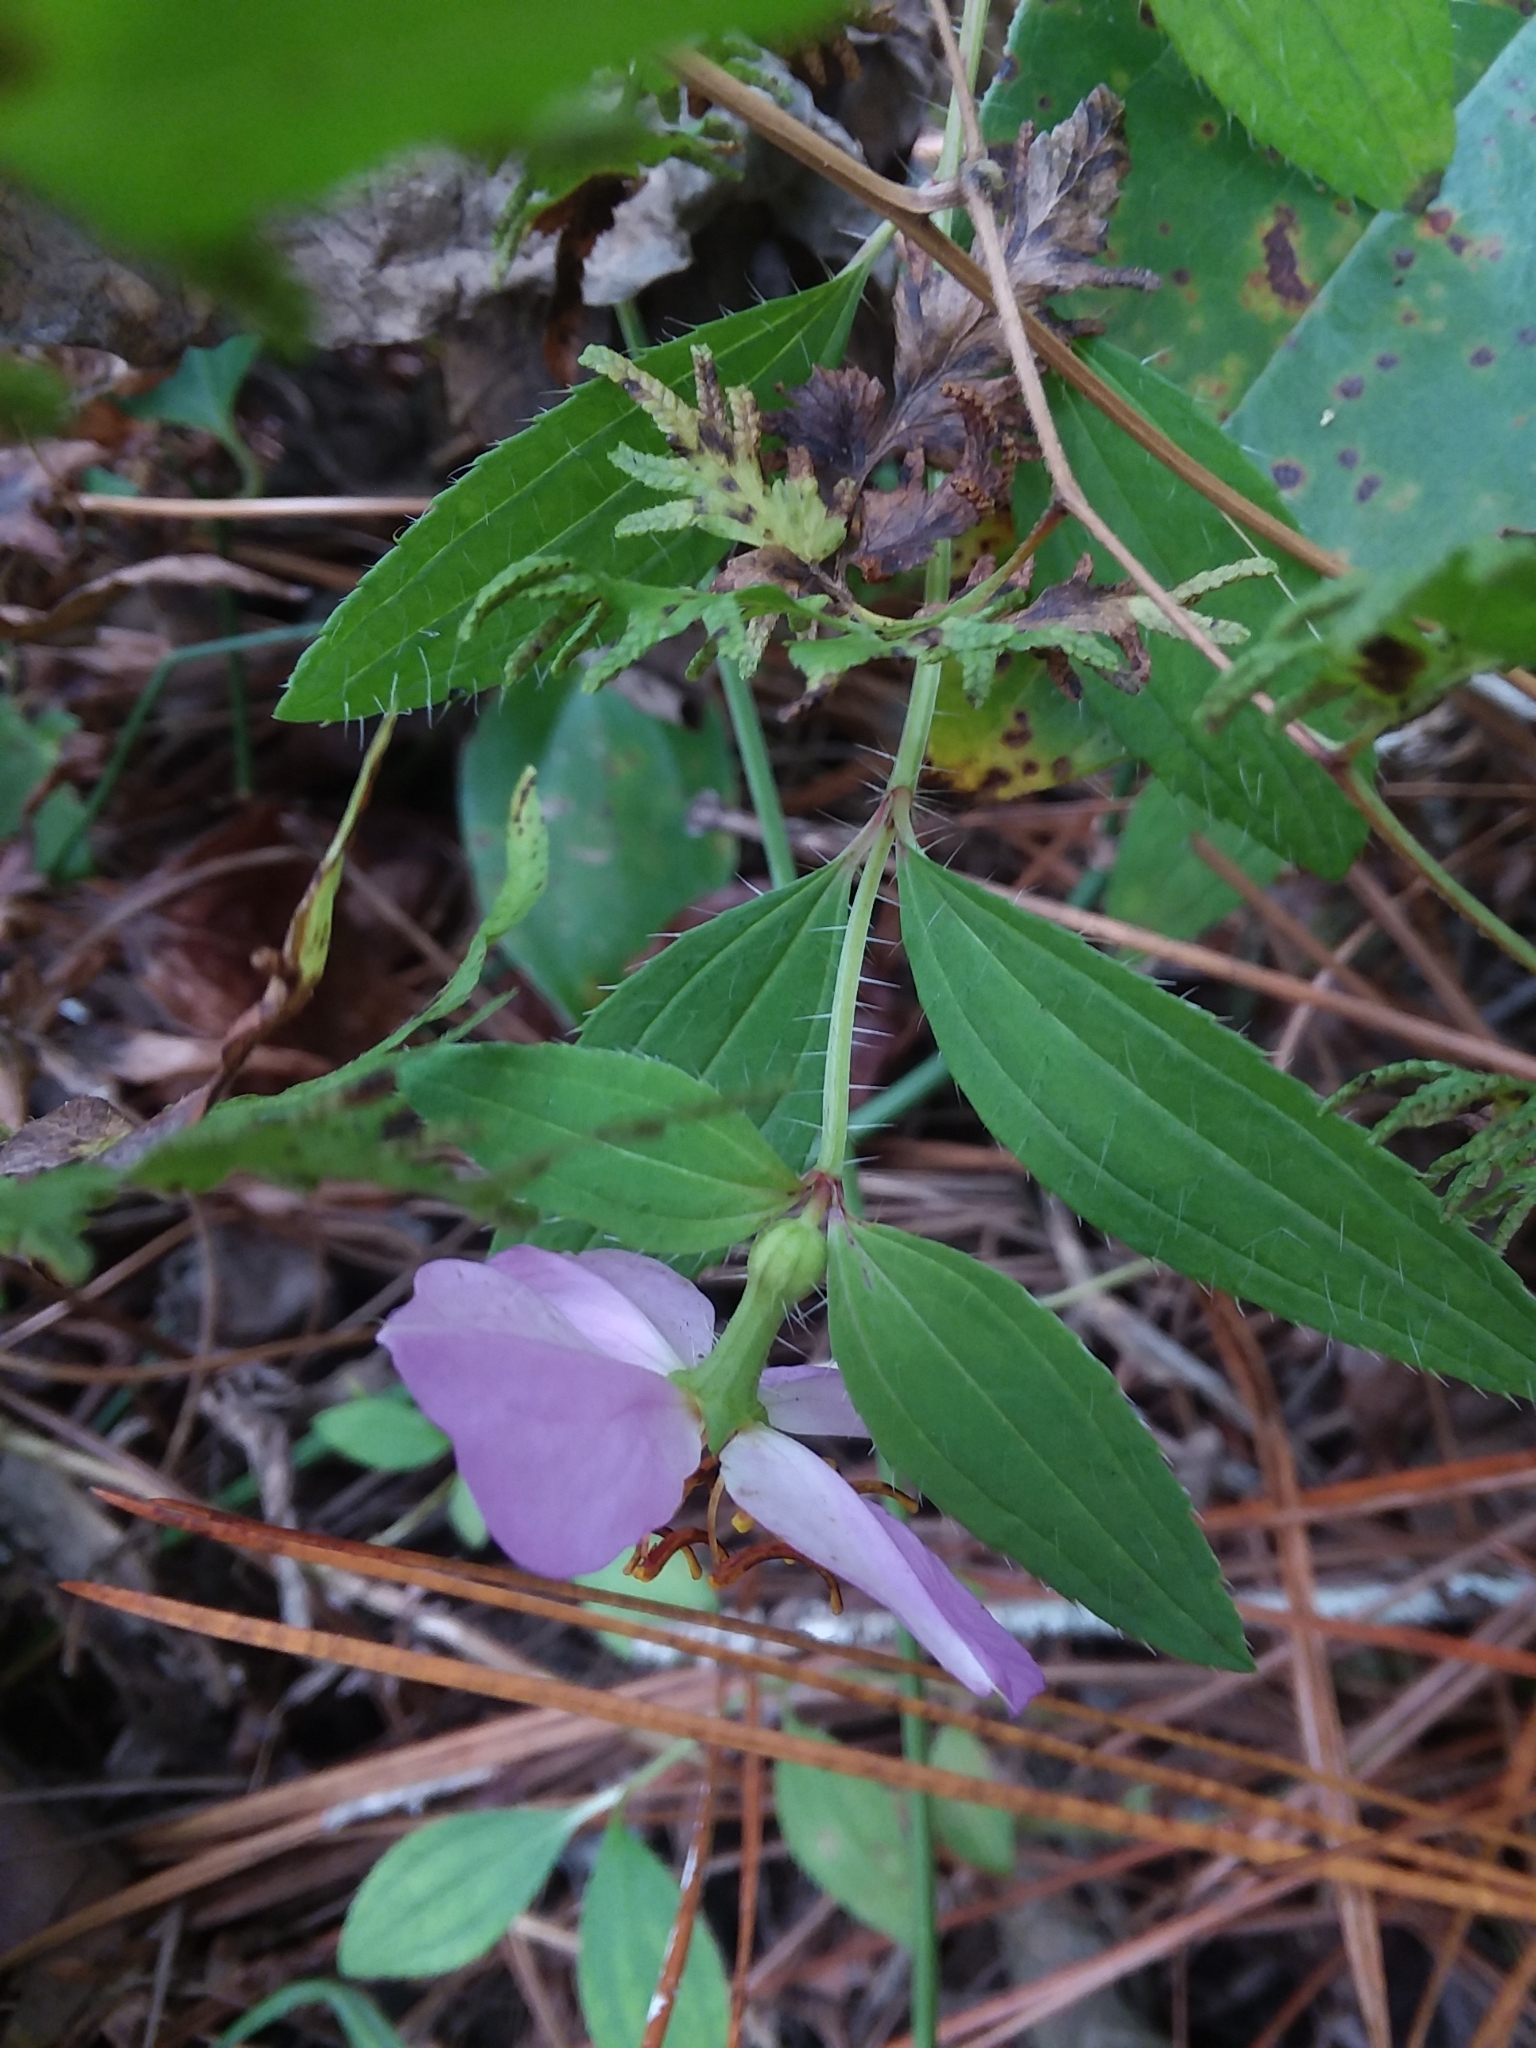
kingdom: Plantae
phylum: Tracheophyta
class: Magnoliopsida
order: Myrtales
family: Melastomataceae
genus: Rhexia
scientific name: Rhexia interior
